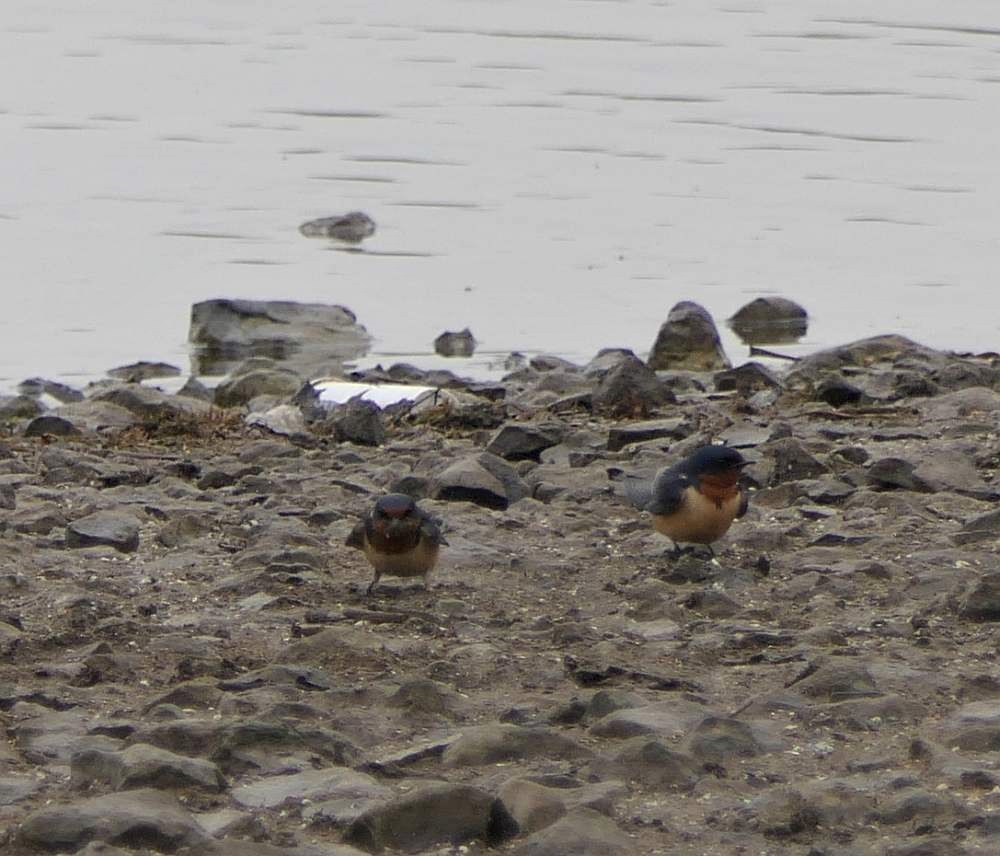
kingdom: Animalia
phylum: Chordata
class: Aves
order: Passeriformes
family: Hirundinidae
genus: Hirundo
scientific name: Hirundo rustica
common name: Barn swallow
